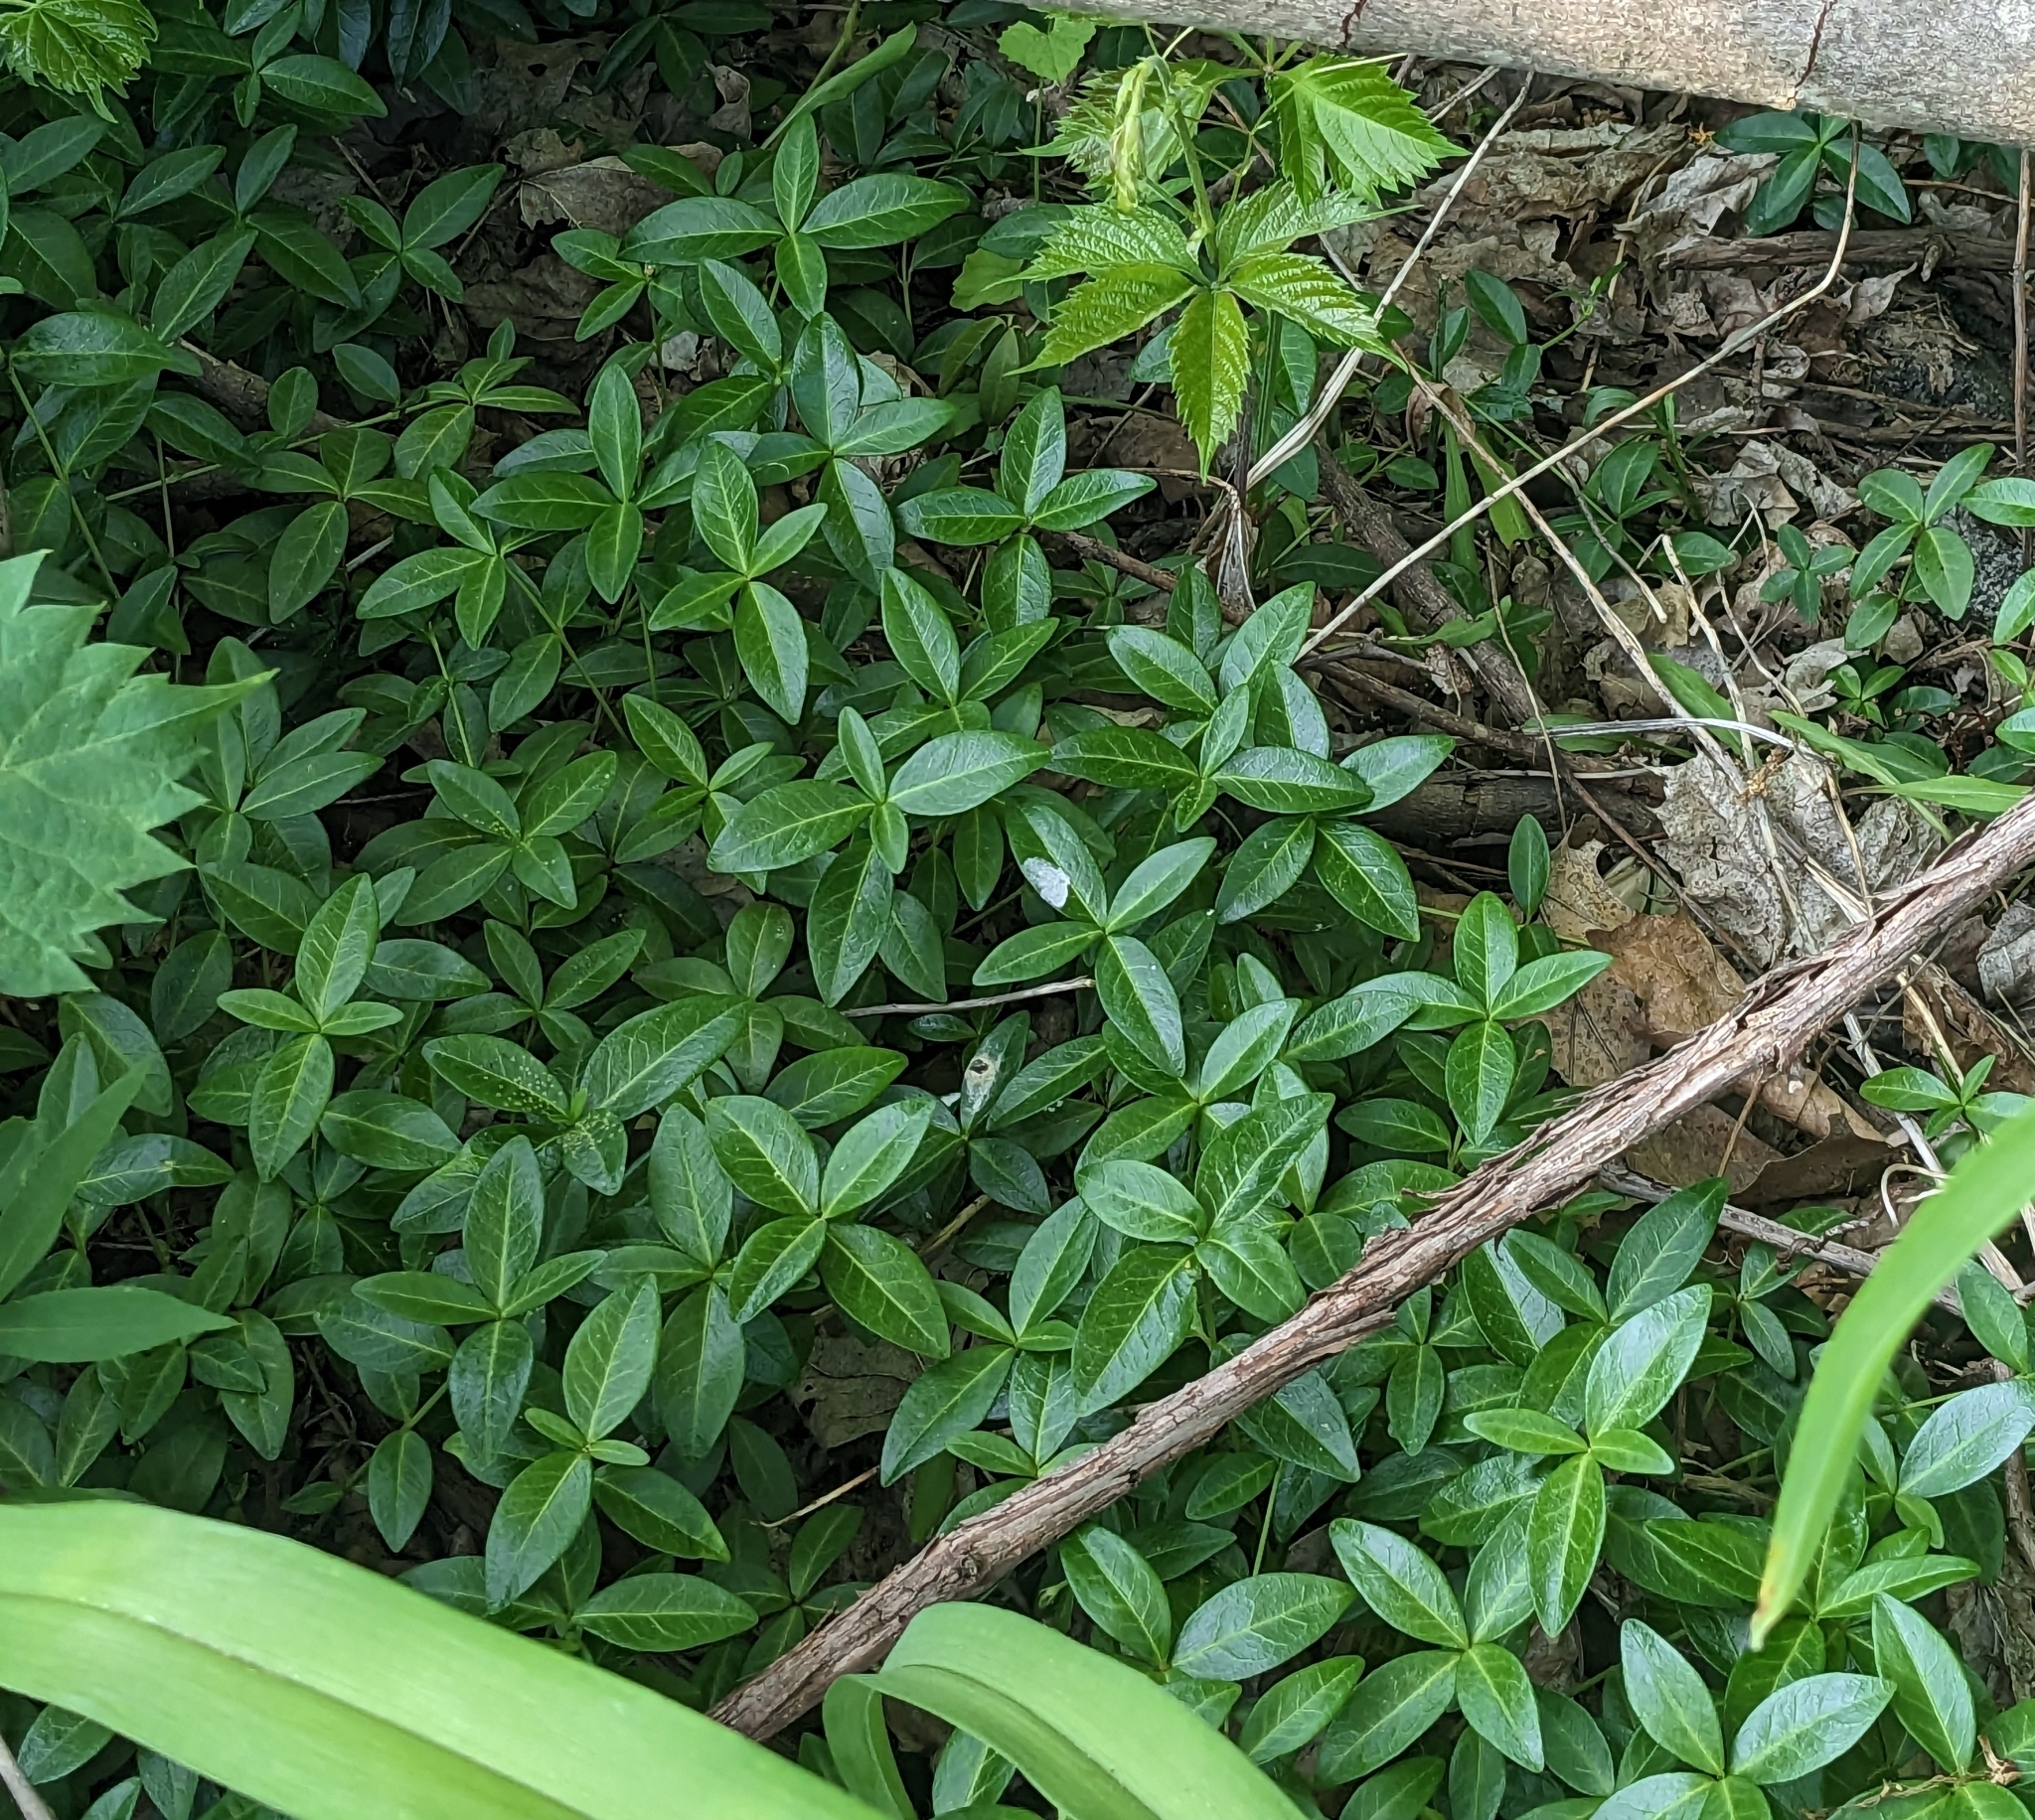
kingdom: Plantae
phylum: Tracheophyta
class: Magnoliopsida
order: Gentianales
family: Apocynaceae
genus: Vinca
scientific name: Vinca minor
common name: Lesser periwinkle
